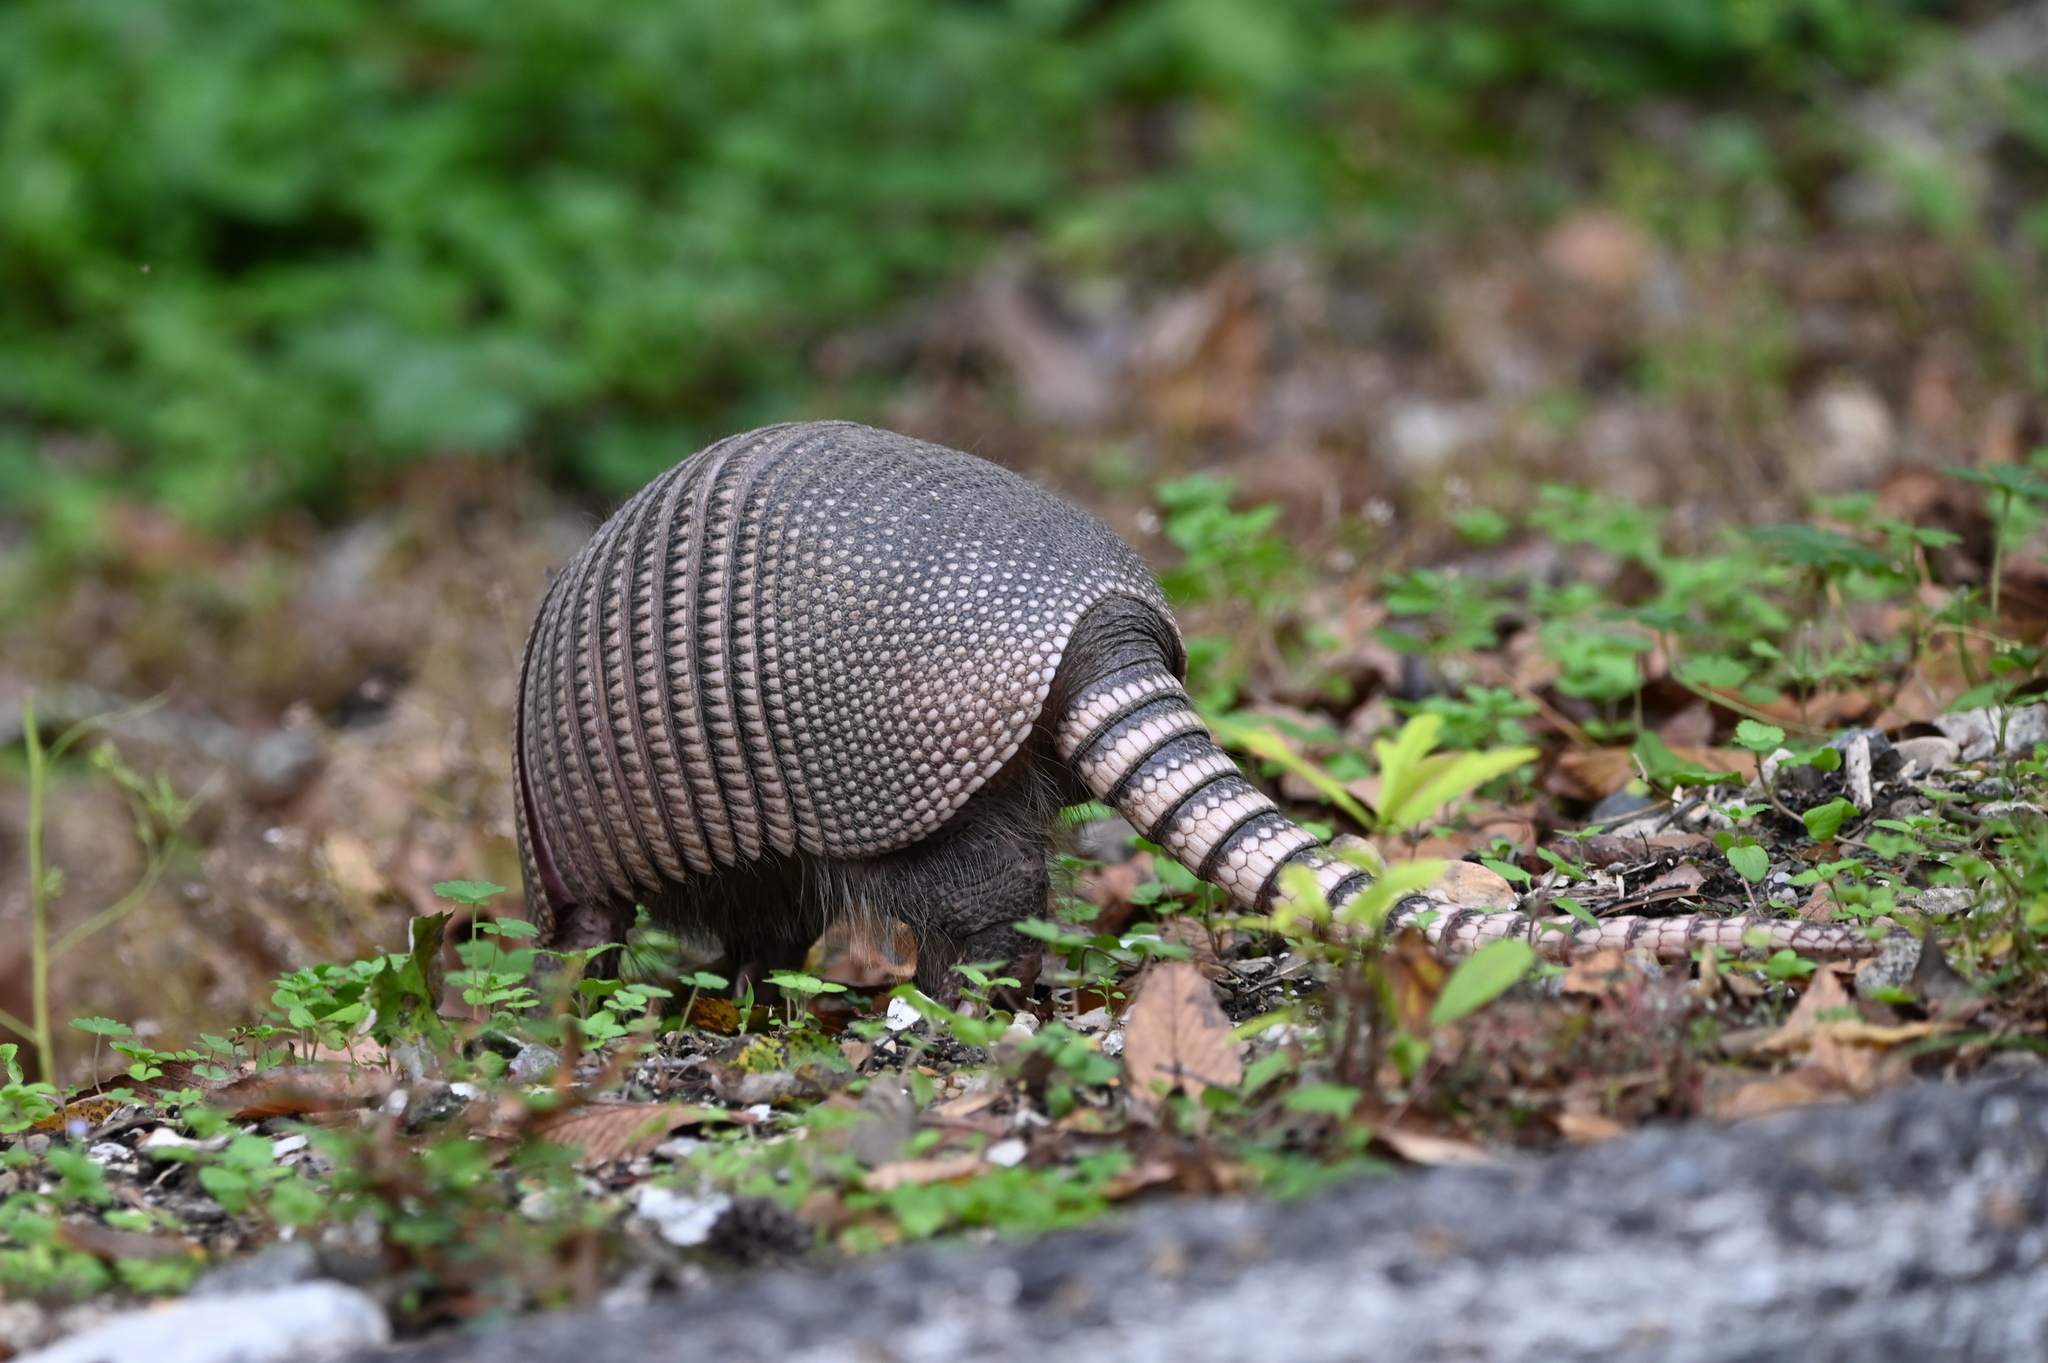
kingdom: Animalia
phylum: Chordata
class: Mammalia
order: Cingulata
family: Dasypodidae
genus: Dasypus
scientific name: Dasypus novemcinctus
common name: Nine-banded armadillo
